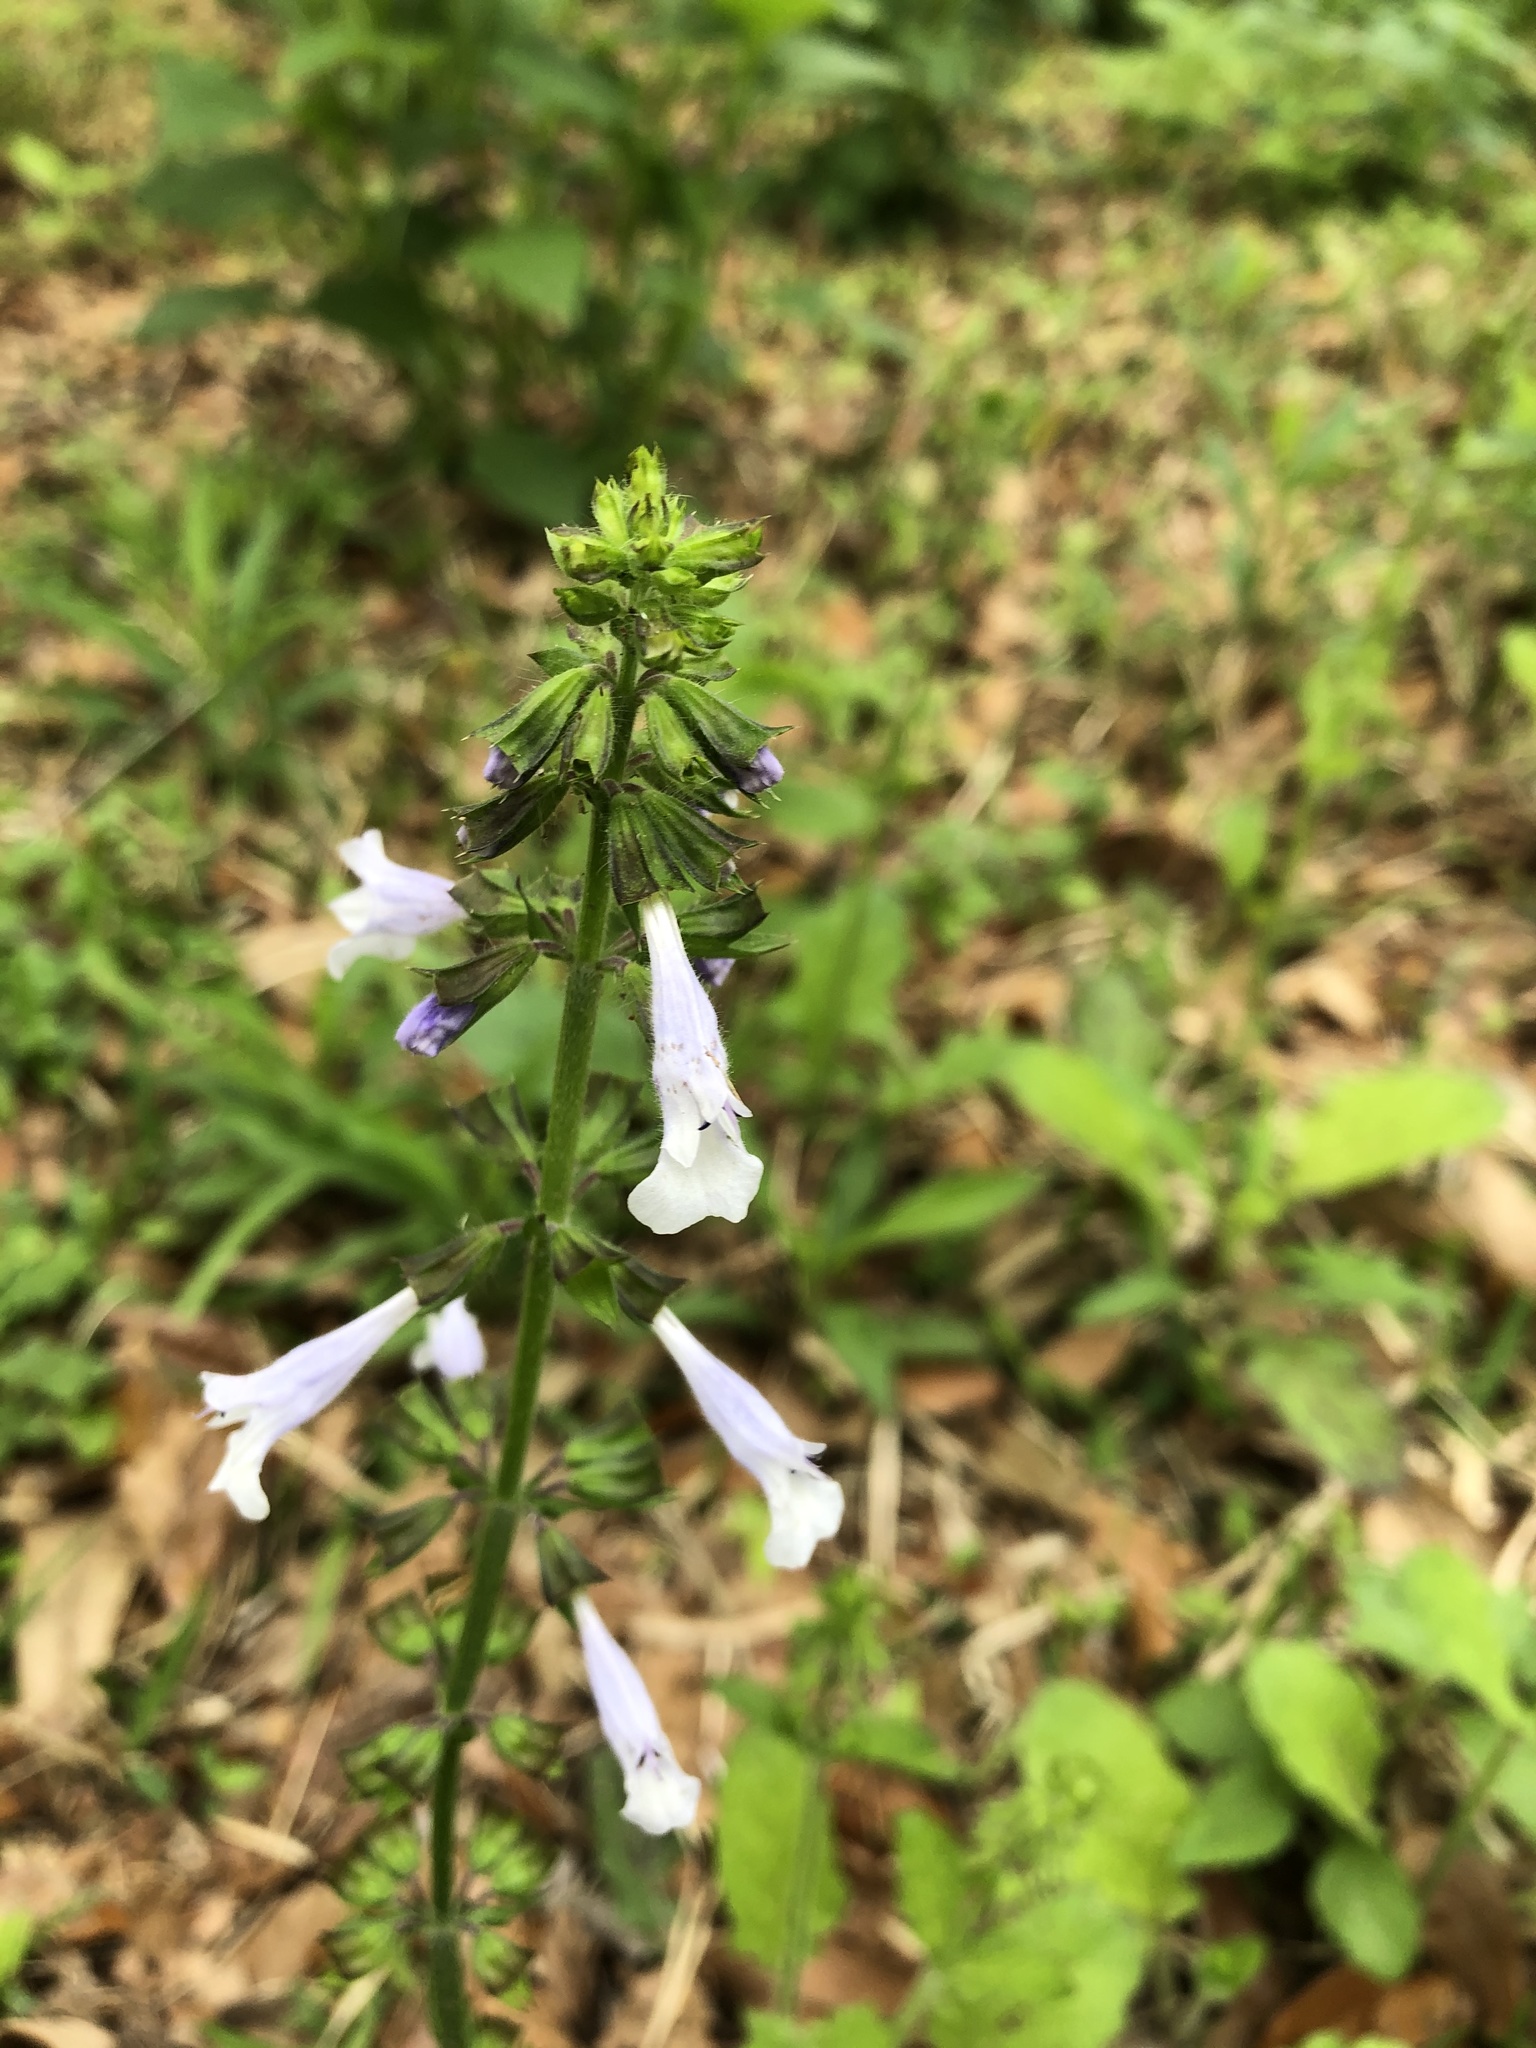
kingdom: Plantae
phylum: Tracheophyta
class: Magnoliopsida
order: Lamiales
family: Lamiaceae
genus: Salvia
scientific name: Salvia lyrata
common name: Cancerweed
